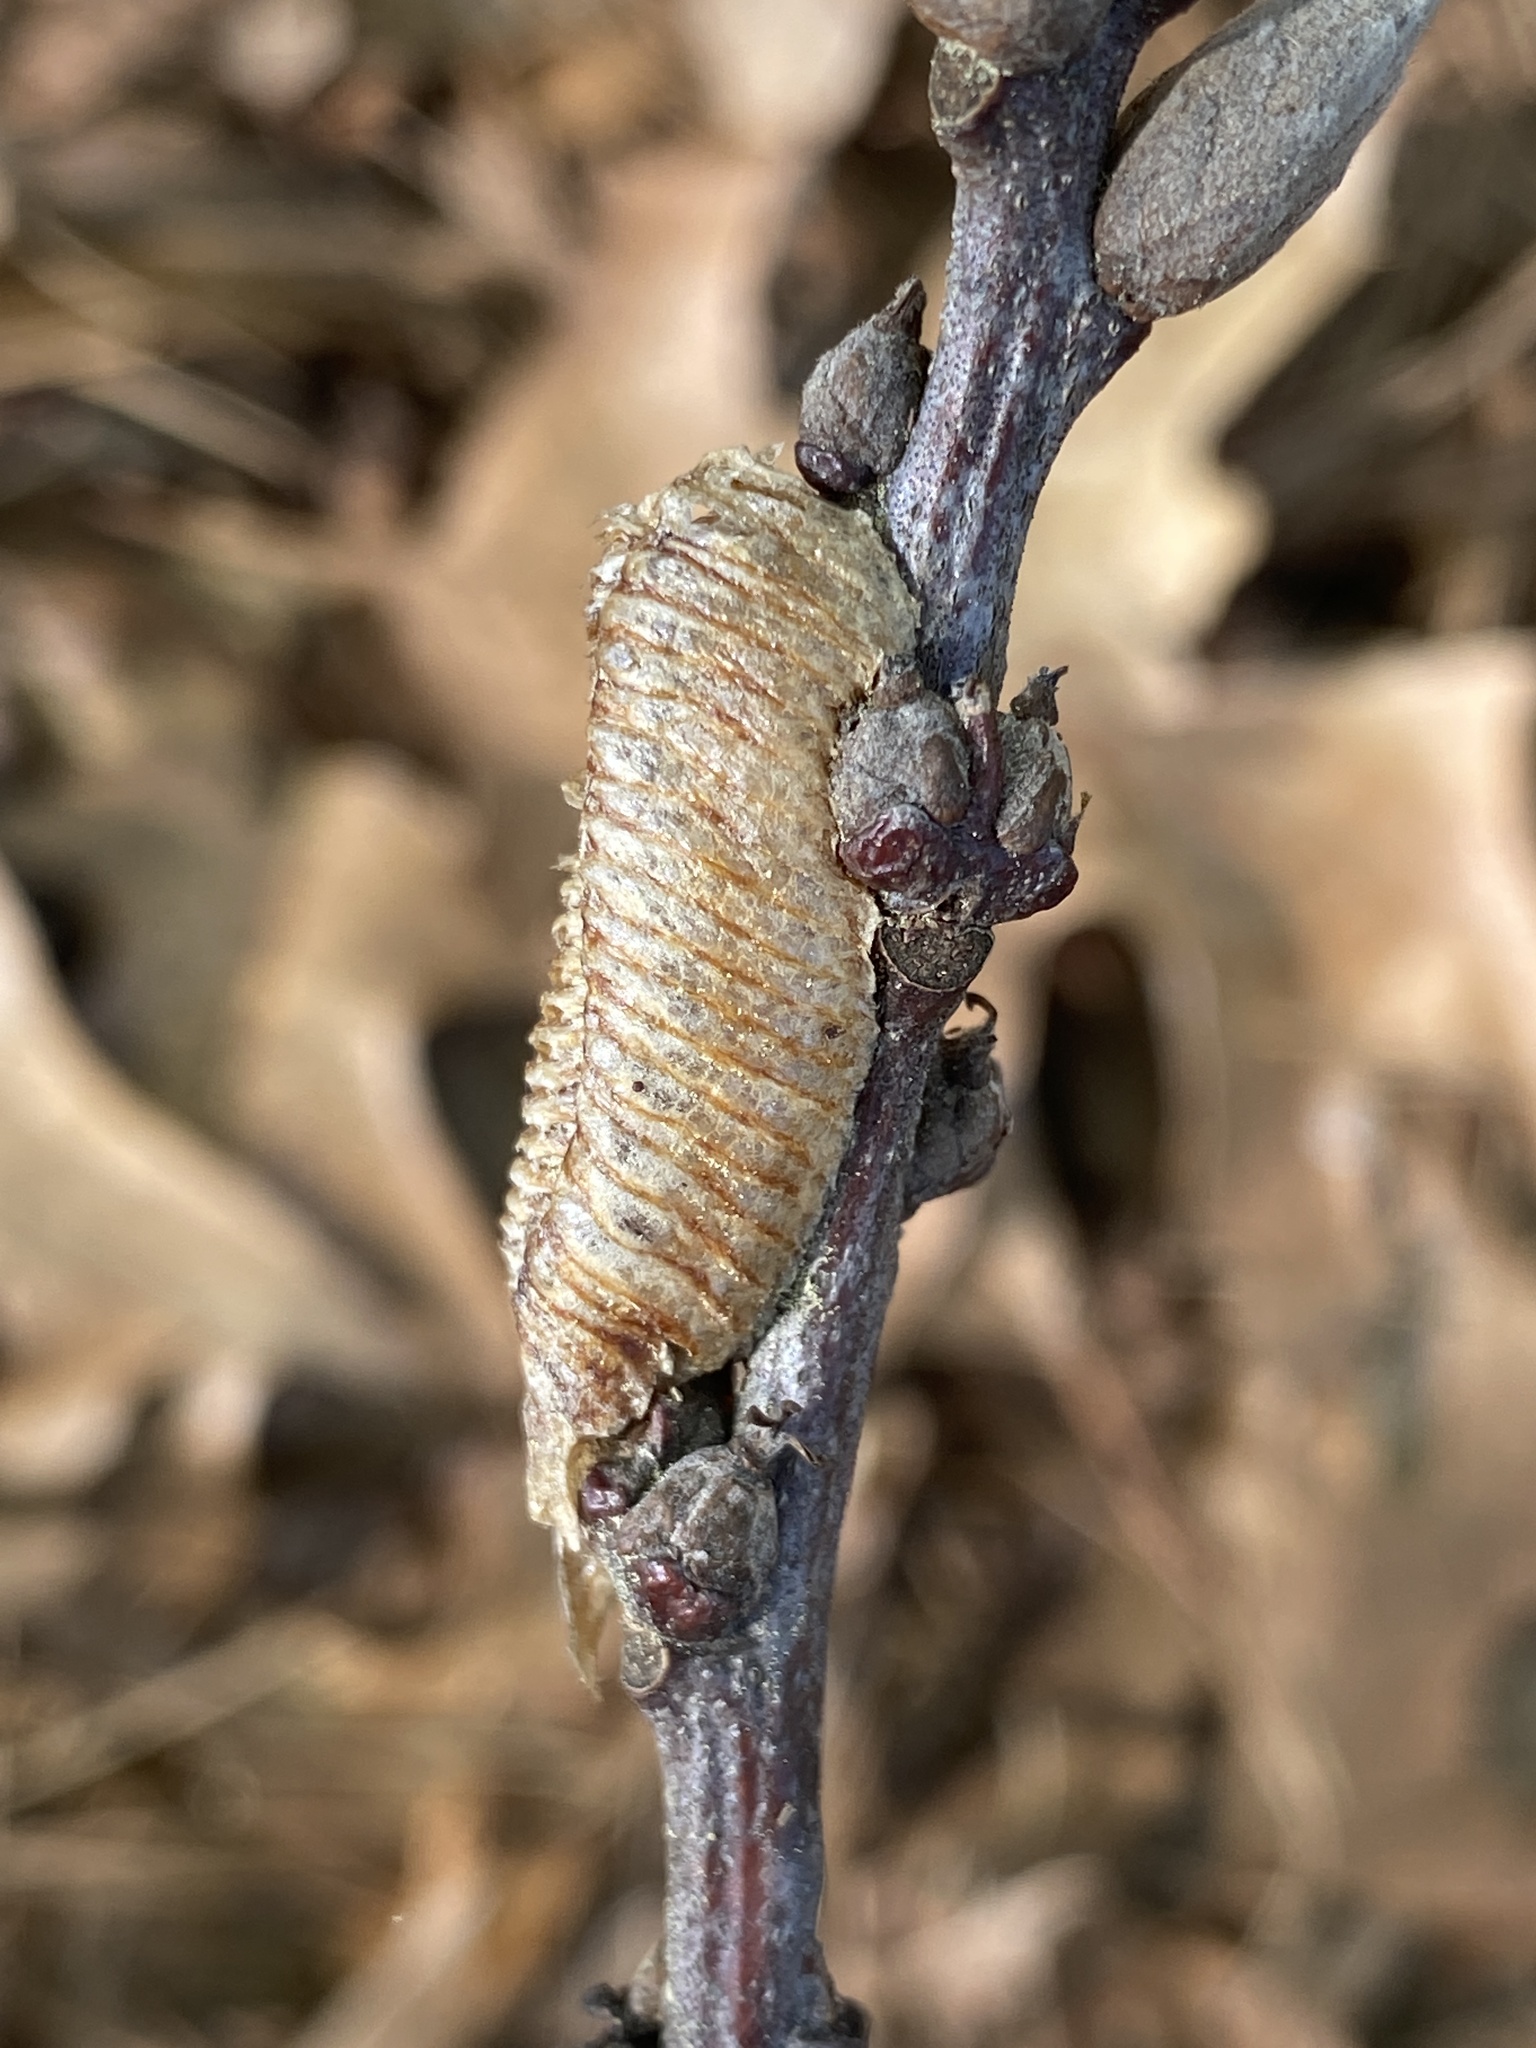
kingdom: Animalia
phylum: Arthropoda
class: Insecta
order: Mantodea
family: Mantidae
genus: Stagmomantis
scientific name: Stagmomantis carolina
